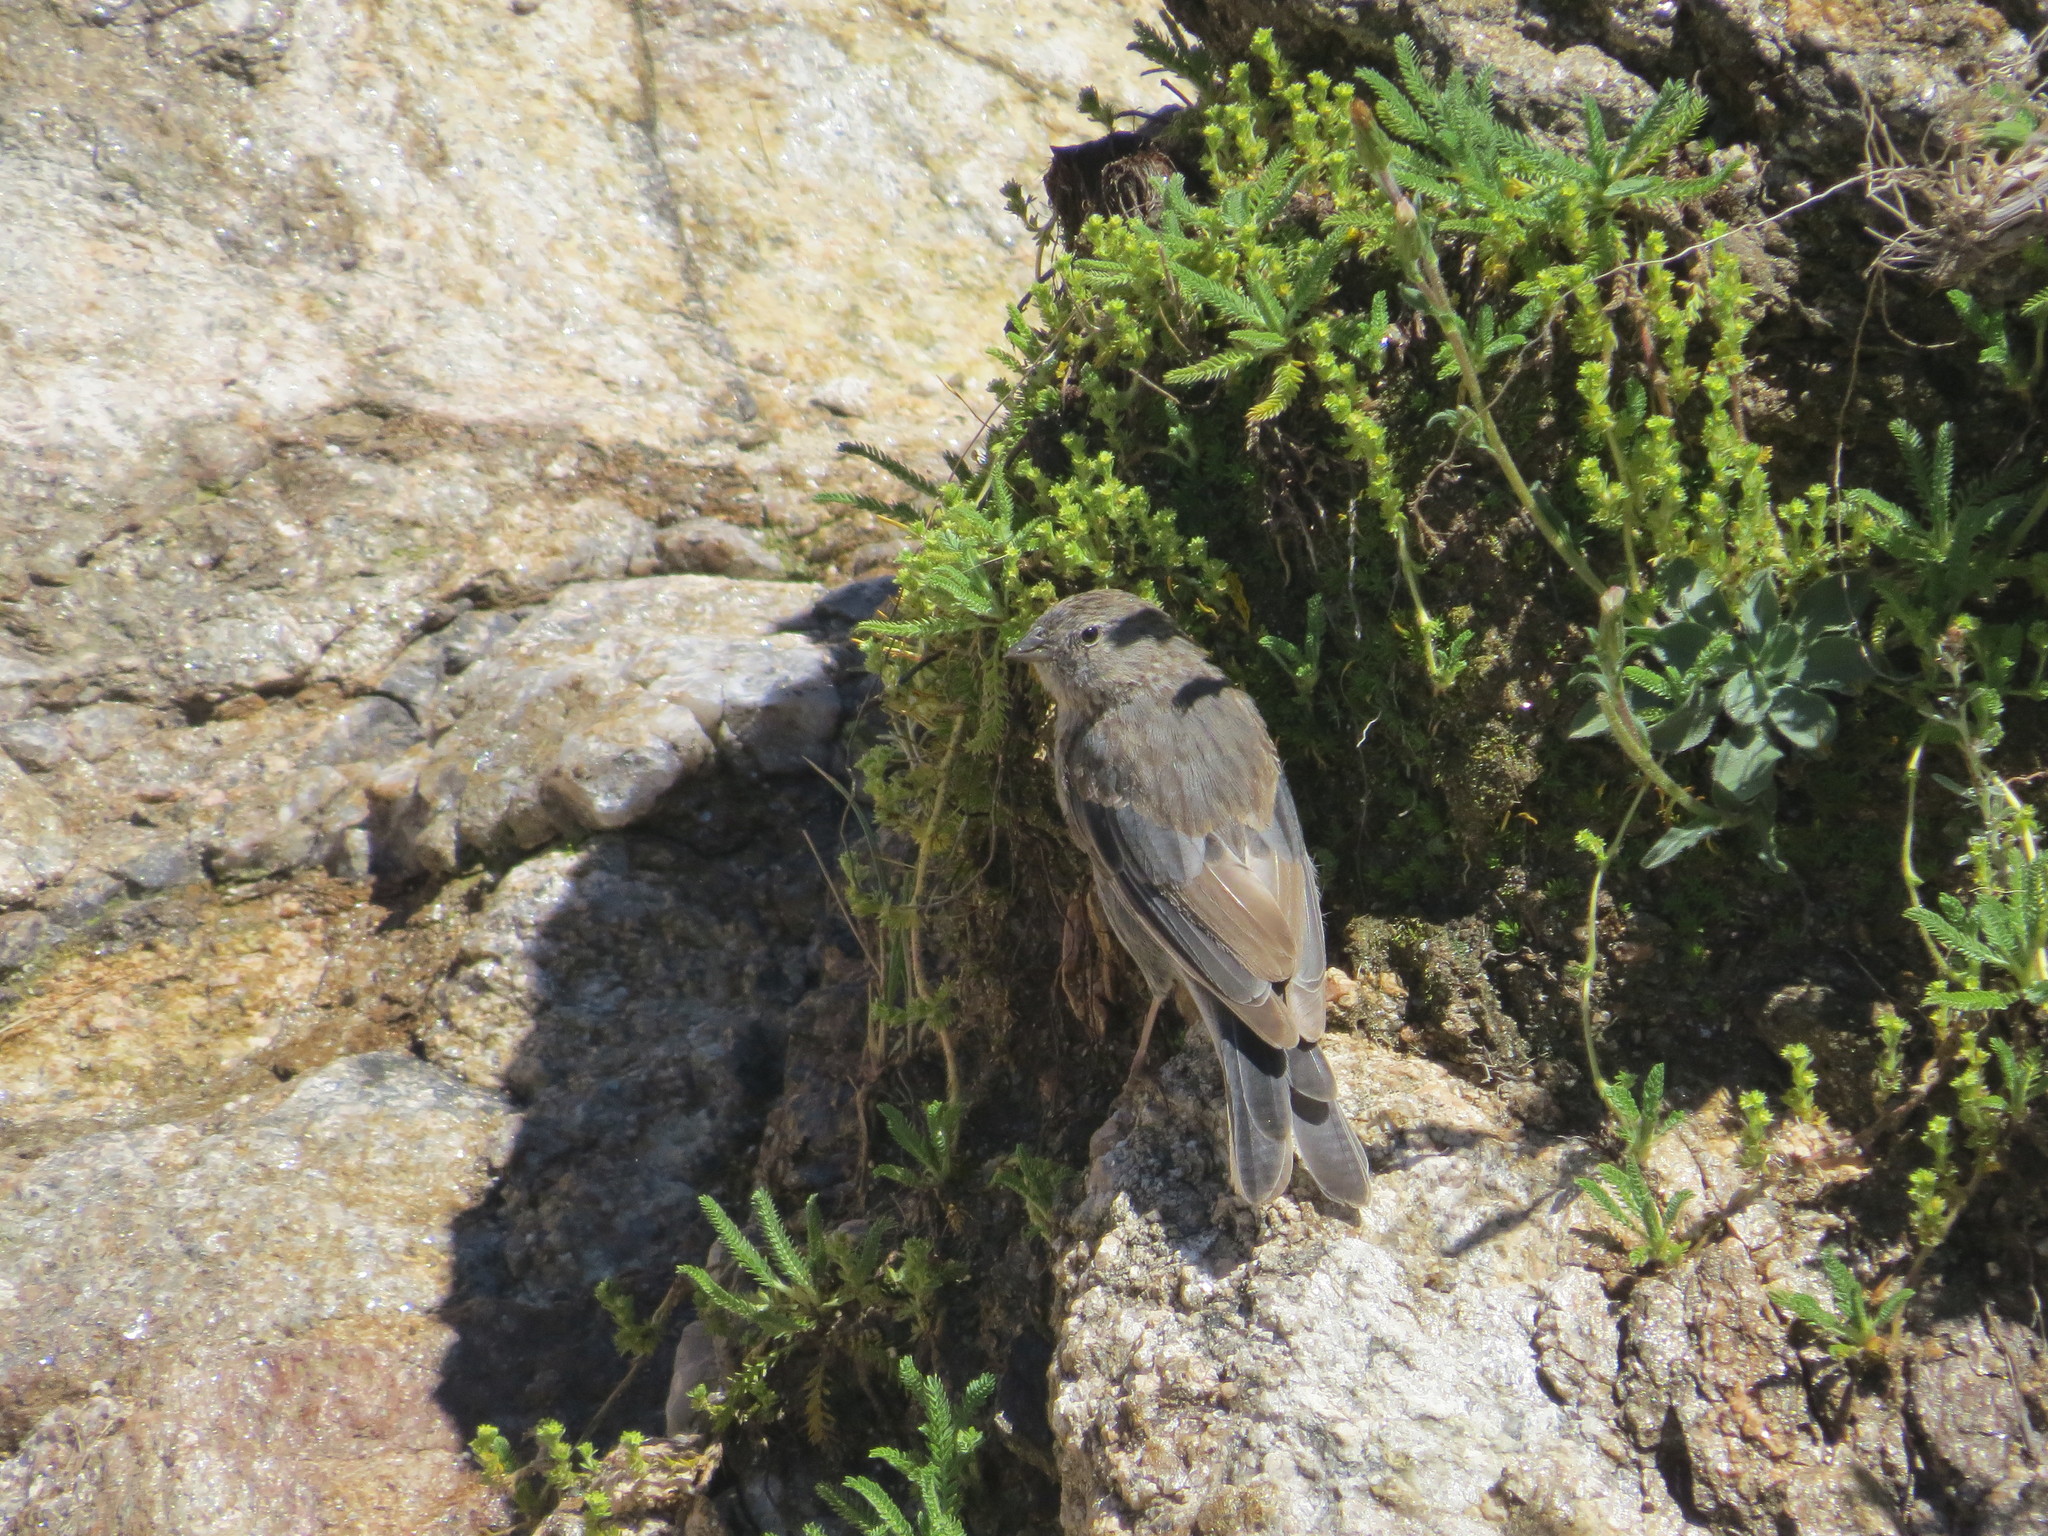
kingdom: Animalia
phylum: Chordata
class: Aves
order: Passeriformes
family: Thraupidae
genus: Geospizopsis
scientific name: Geospizopsis unicolor
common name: Plumbeous sierra-finch
